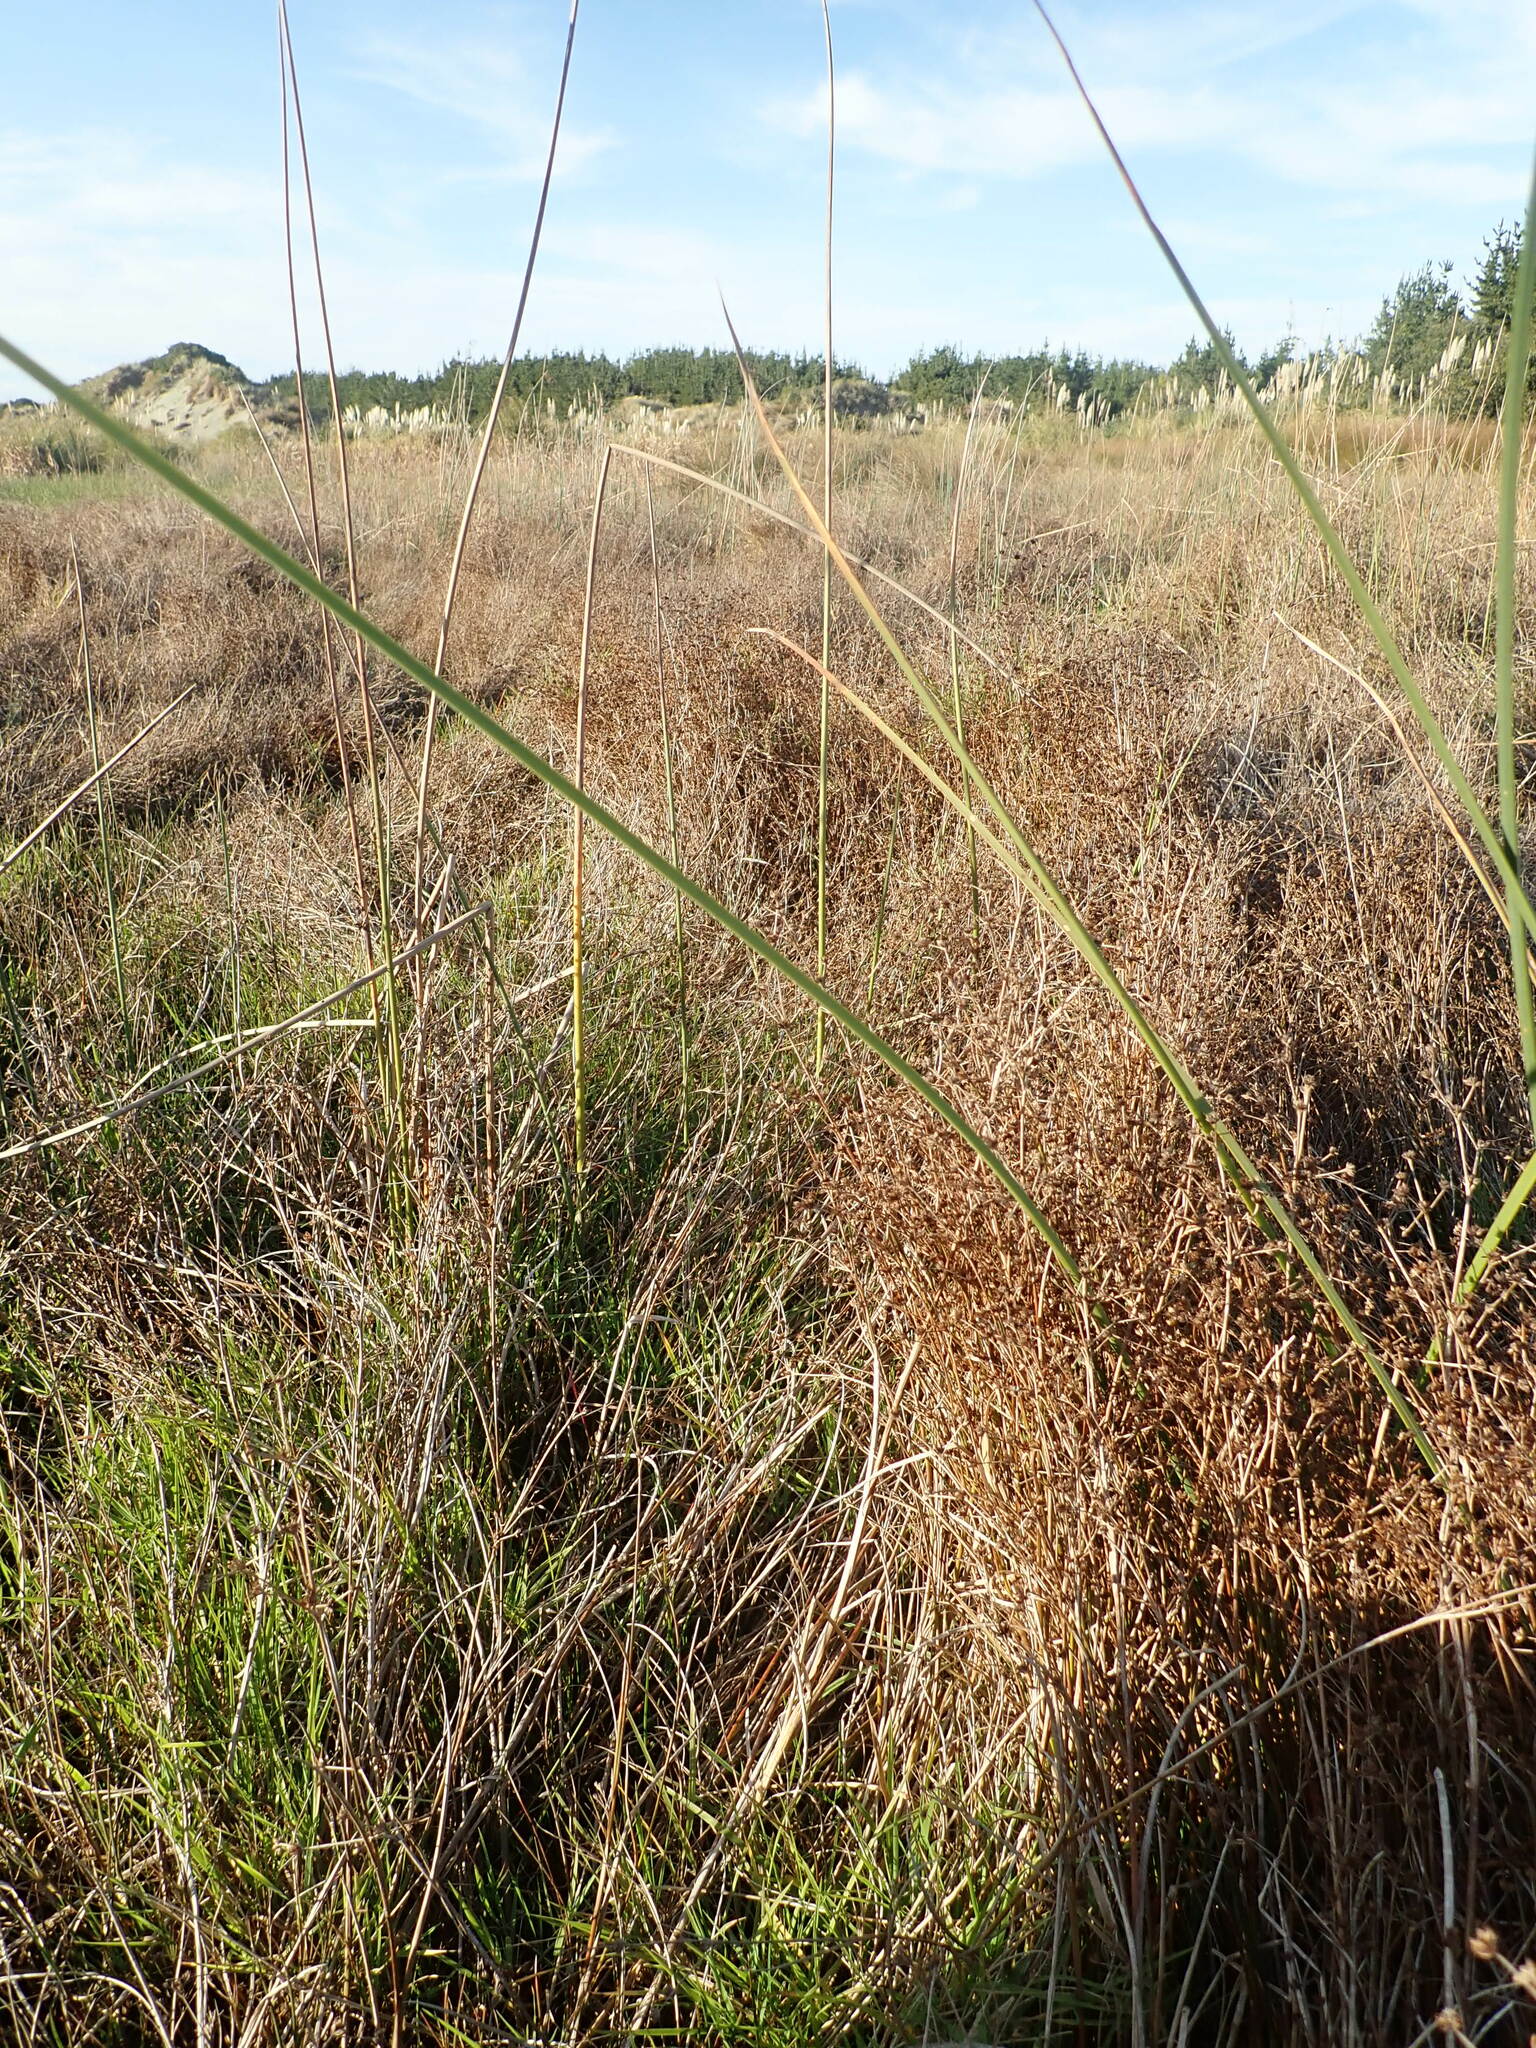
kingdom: Plantae
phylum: Tracheophyta
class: Liliopsida
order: Poales
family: Juncaceae
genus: Juncus
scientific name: Juncus articulatus
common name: Jointed rush
